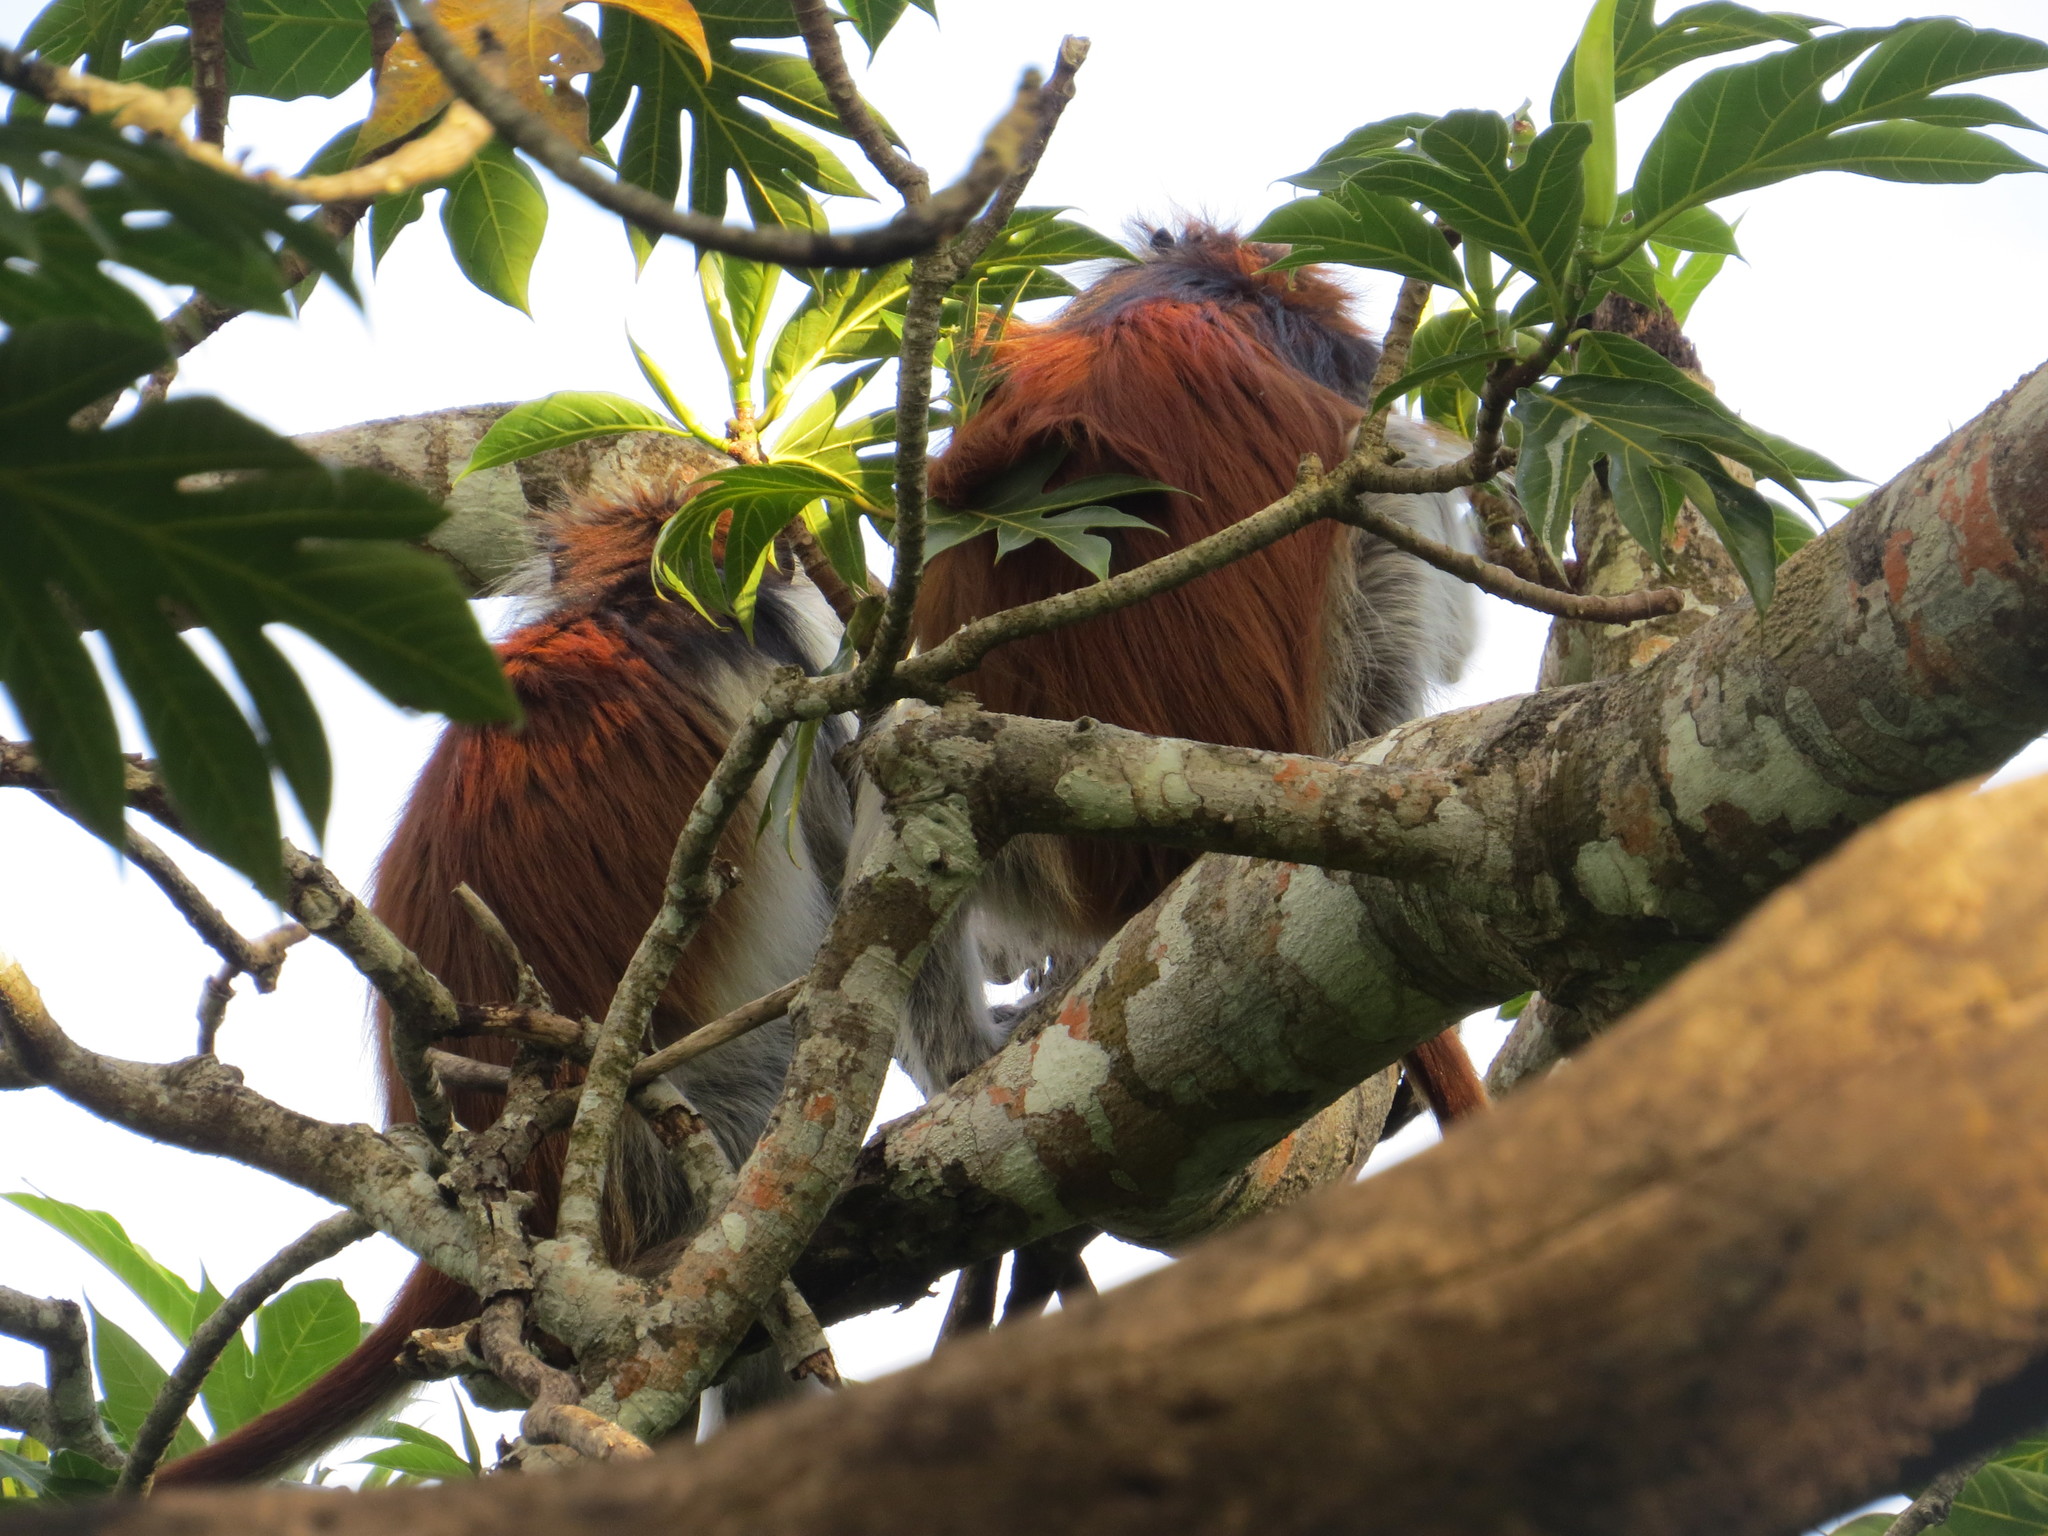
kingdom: Animalia
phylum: Chordata
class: Mammalia
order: Primates
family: Cercopithecidae
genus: Piliocolobus
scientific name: Piliocolobus kirkii
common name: Zanzibar red colobus
